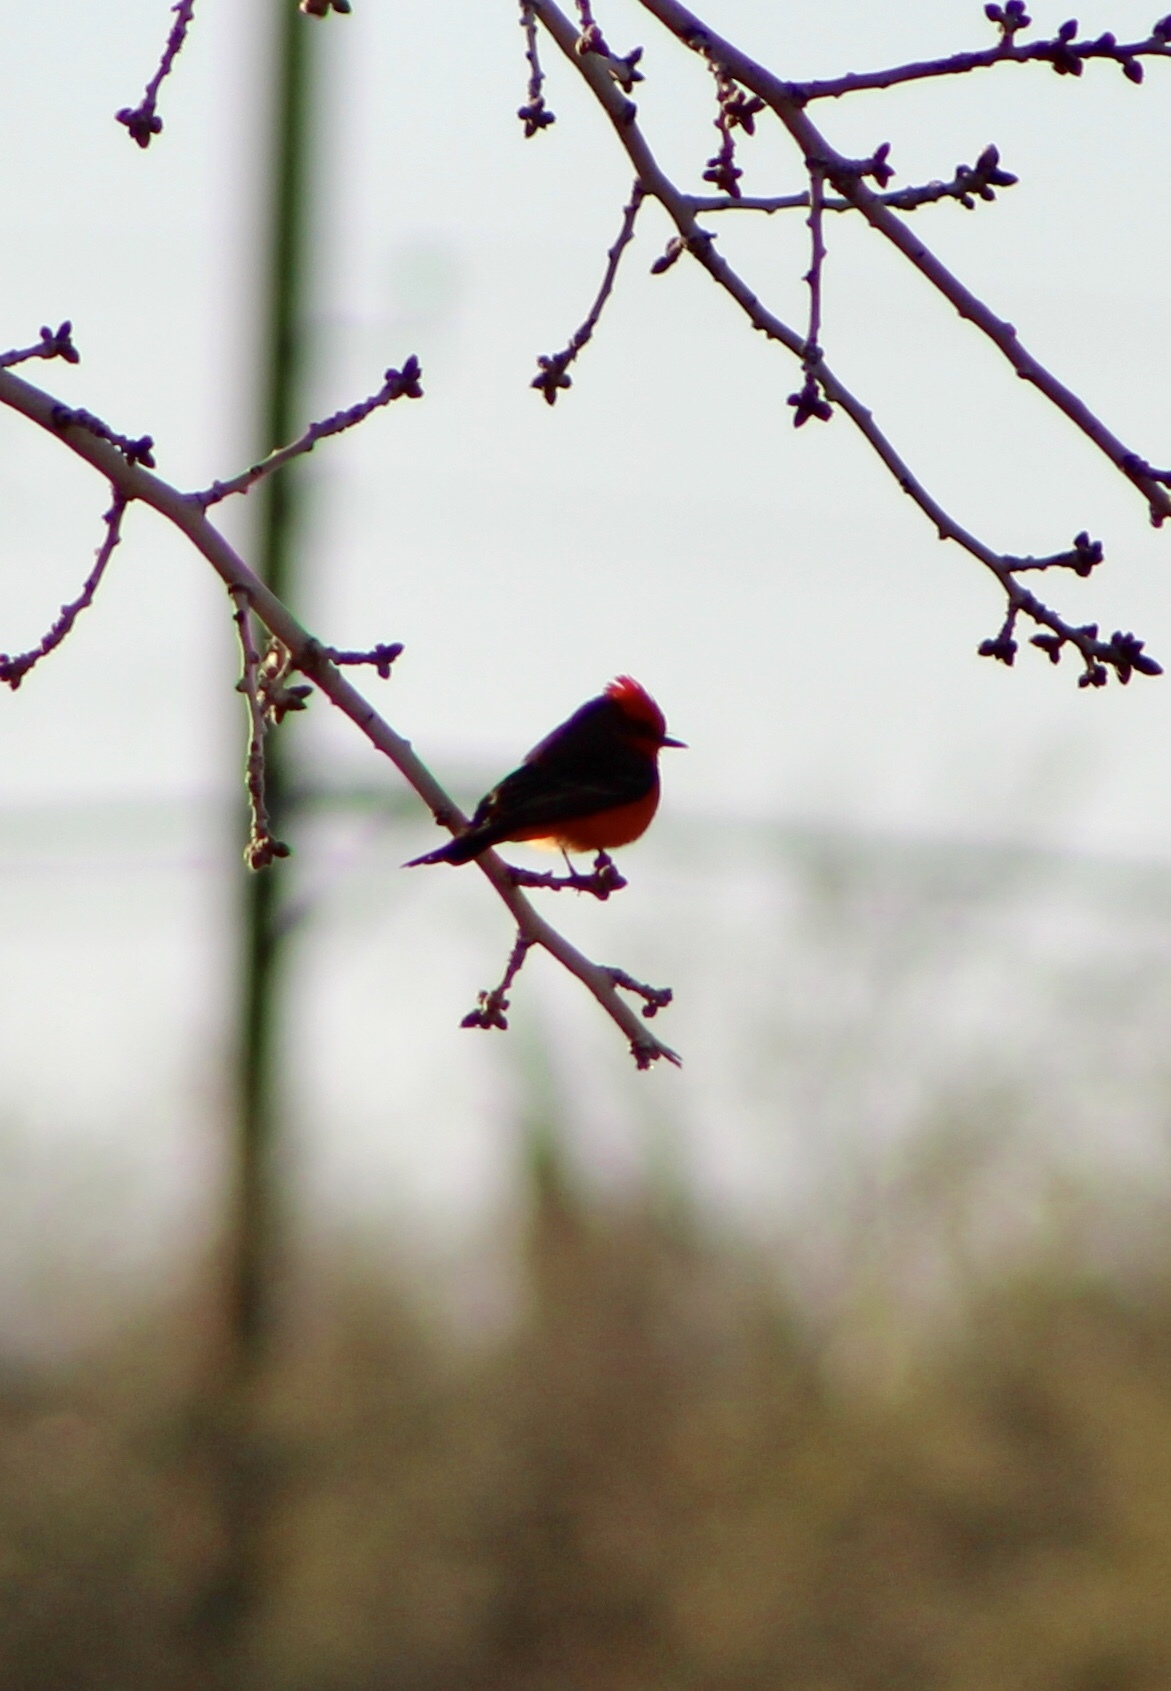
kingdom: Animalia
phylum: Chordata
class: Aves
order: Passeriformes
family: Tyrannidae
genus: Pyrocephalus
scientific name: Pyrocephalus rubinus
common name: Vermilion flycatcher
